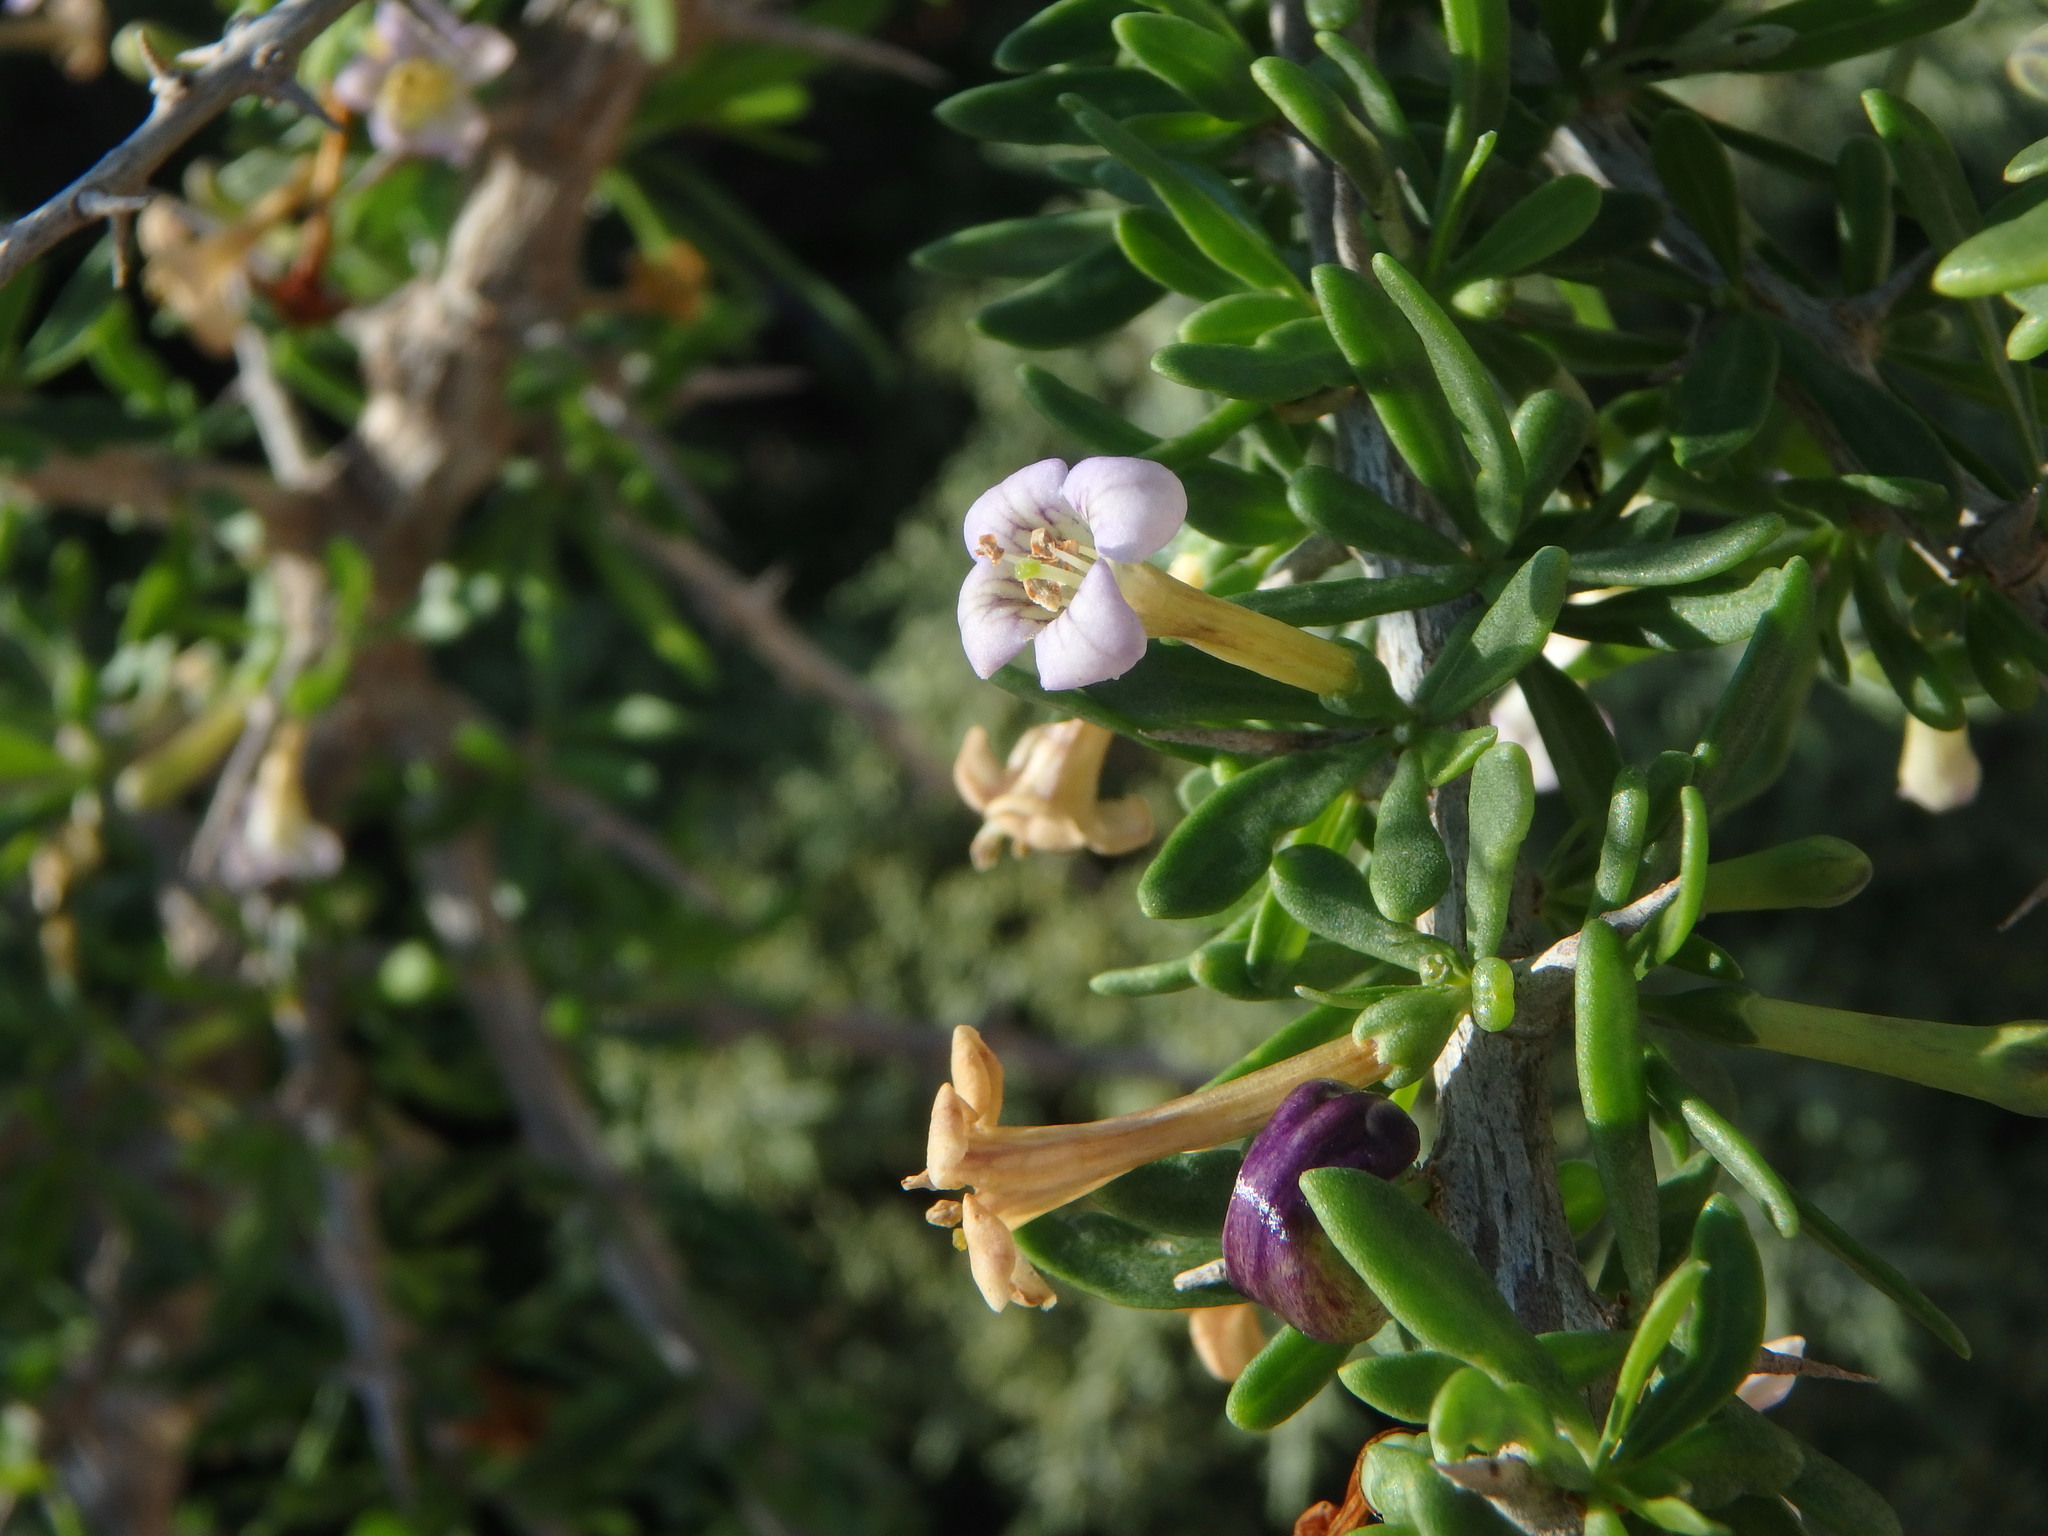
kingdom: Plantae
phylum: Tracheophyta
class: Magnoliopsida
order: Solanales
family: Solanaceae
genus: Lycium
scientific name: Lycium schweinfurthii
